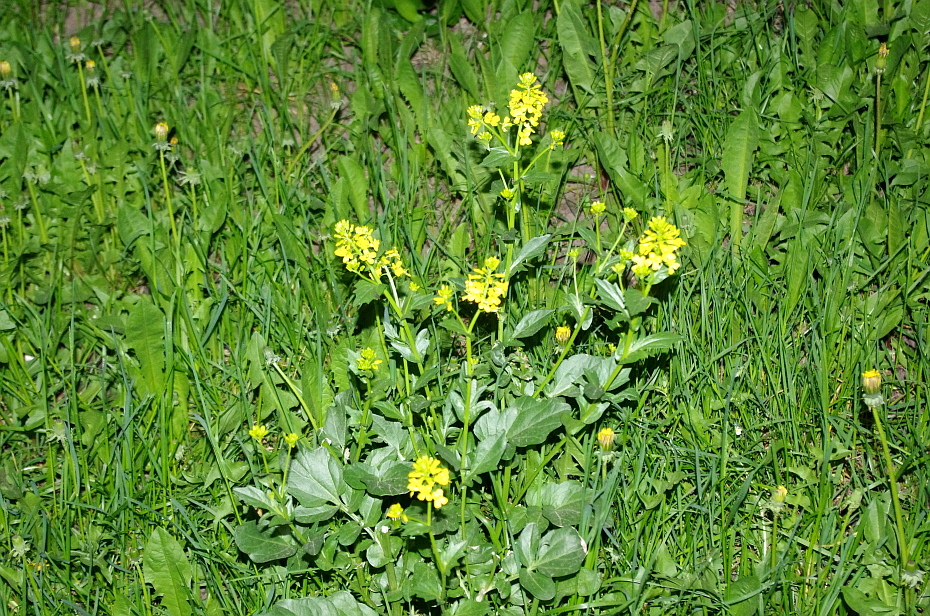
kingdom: Plantae
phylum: Tracheophyta
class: Magnoliopsida
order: Brassicales
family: Brassicaceae
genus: Barbarea
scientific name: Barbarea vulgaris
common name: Cressy-greens
